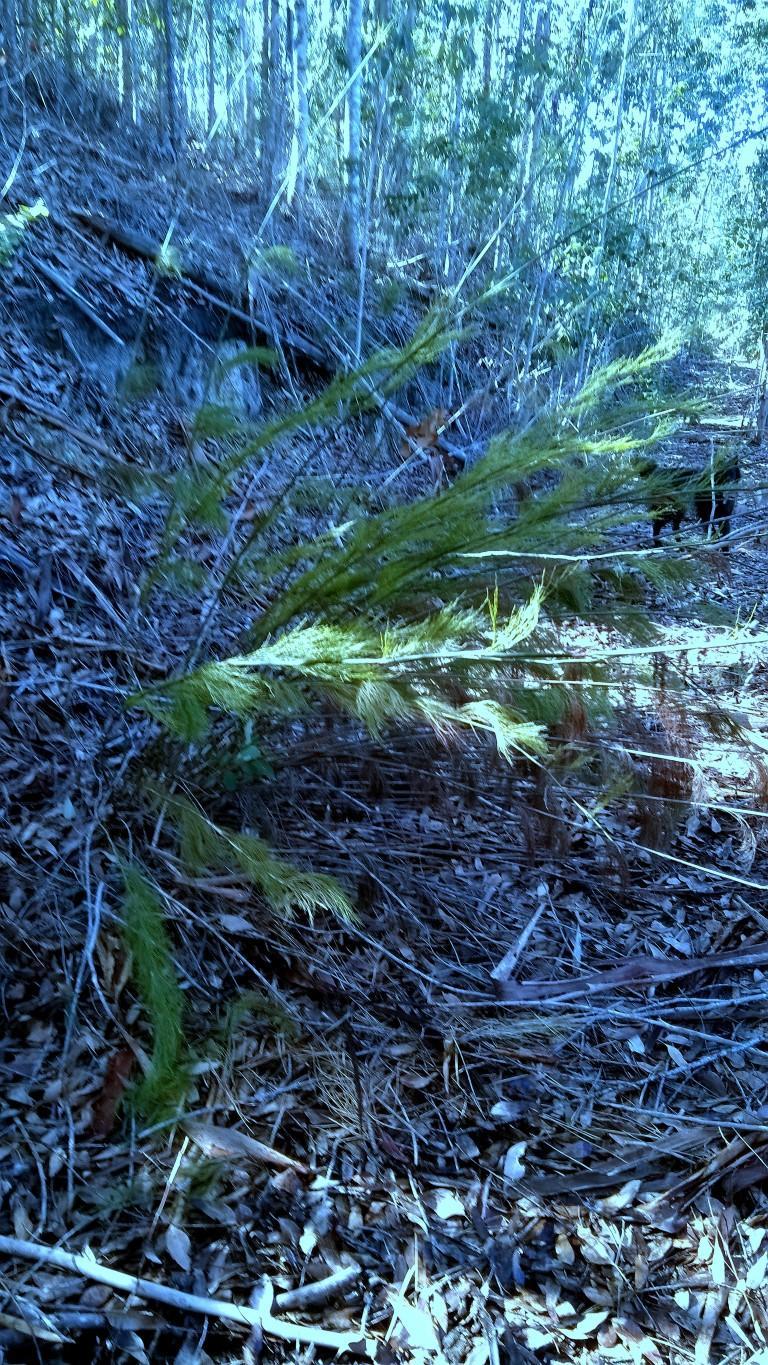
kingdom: Plantae
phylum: Tracheophyta
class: Liliopsida
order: Poales
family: Restionaceae
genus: Rhodocoma
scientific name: Rhodocoma gigantea
